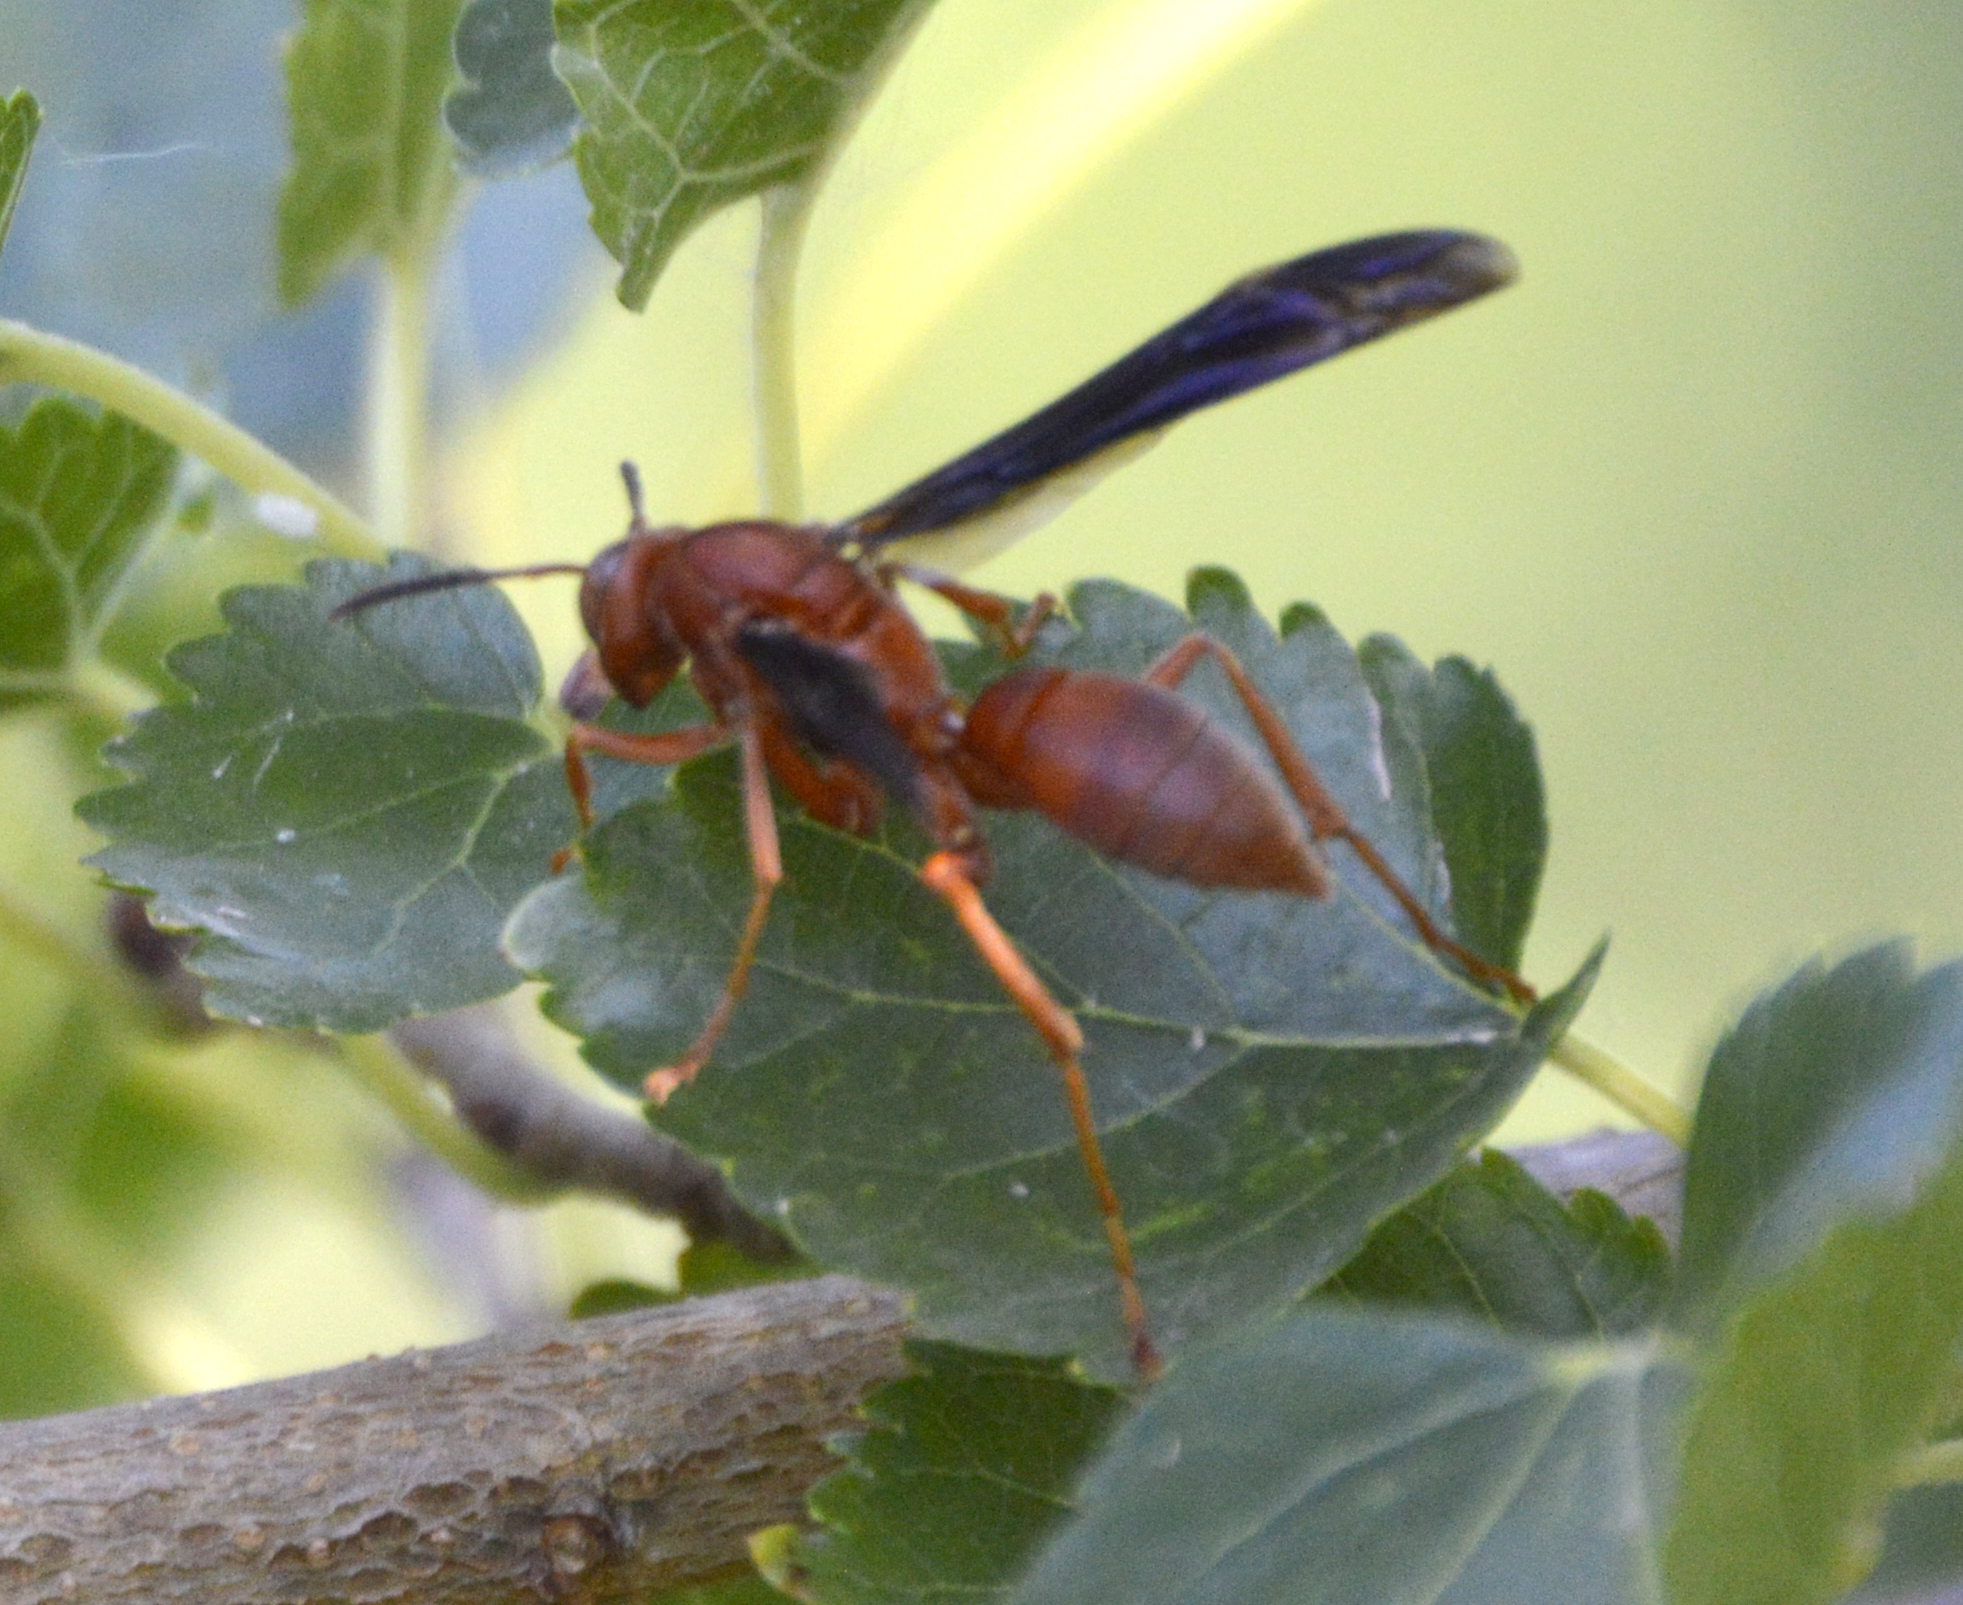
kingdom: Animalia
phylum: Arthropoda
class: Insecta
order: Hymenoptera
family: Eumenidae
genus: Polistes
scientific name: Polistes
